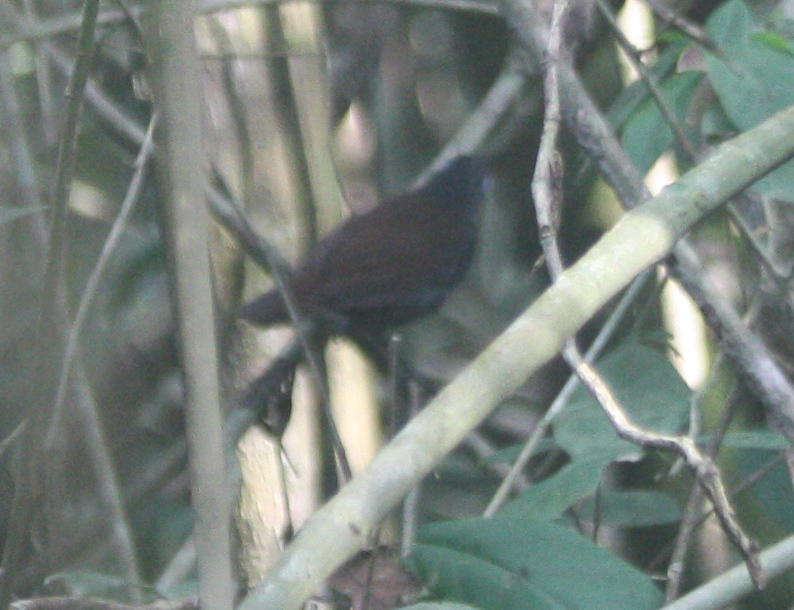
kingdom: Animalia
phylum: Chordata
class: Aves
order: Passeriformes
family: Thamnophilidae
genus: Myrmeciza
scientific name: Myrmeciza exsul
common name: Chestnut-backed antbird
